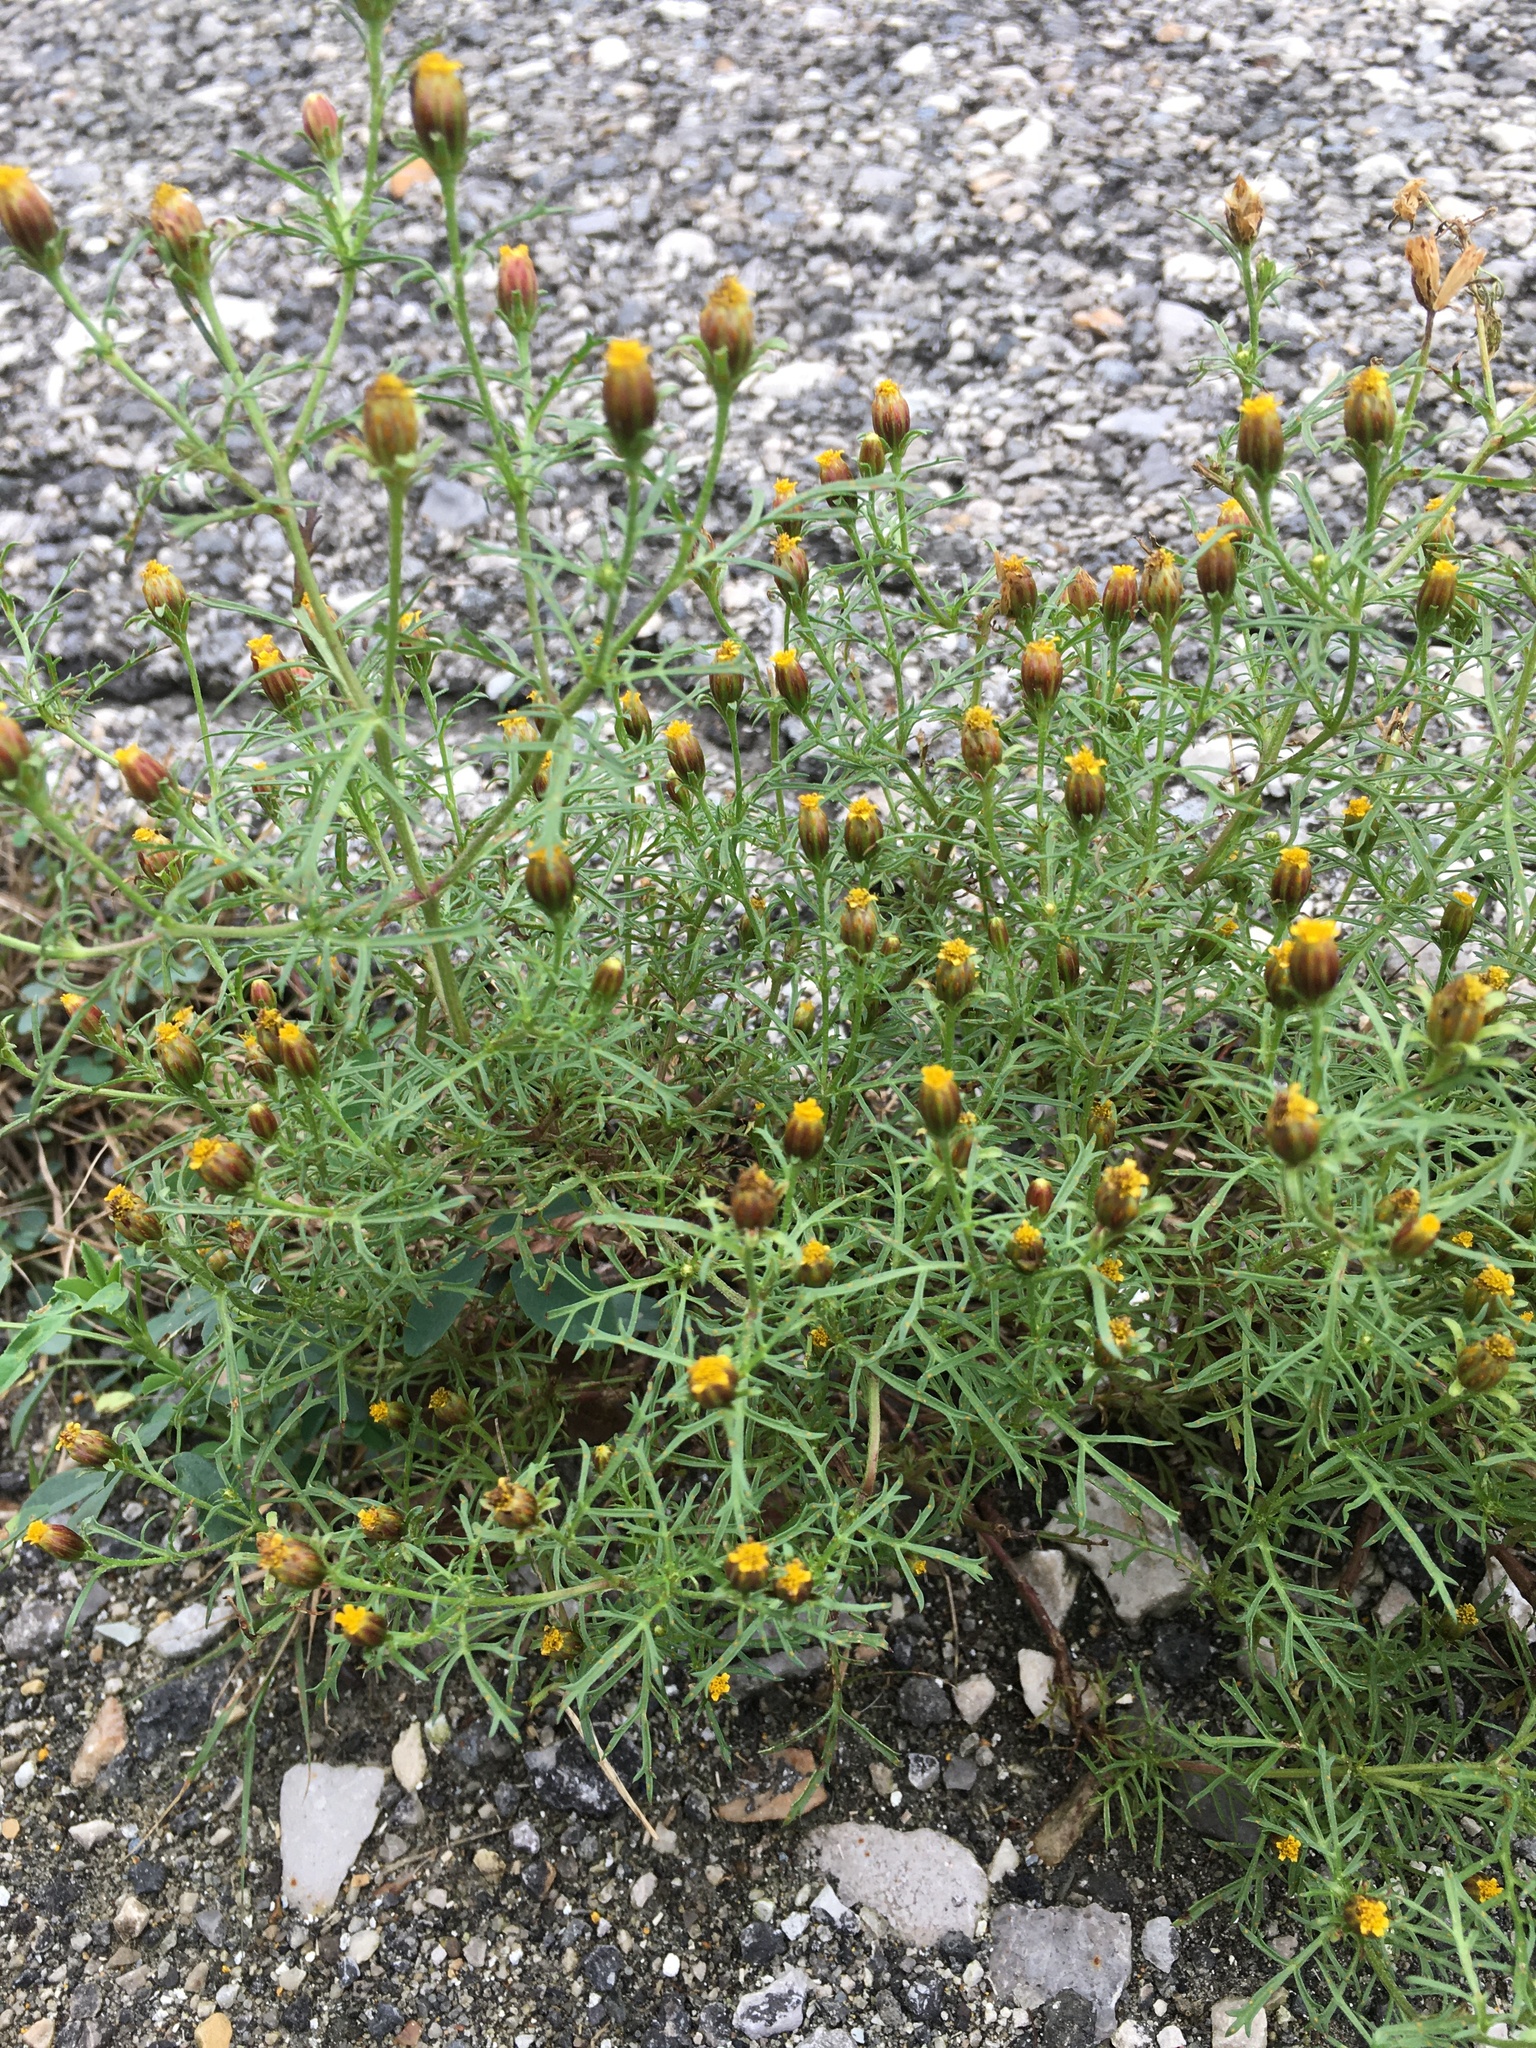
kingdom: Plantae
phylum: Tracheophyta
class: Magnoliopsida
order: Asterales
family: Asteraceae
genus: Dyssodia
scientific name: Dyssodia papposa
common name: Dogweed
